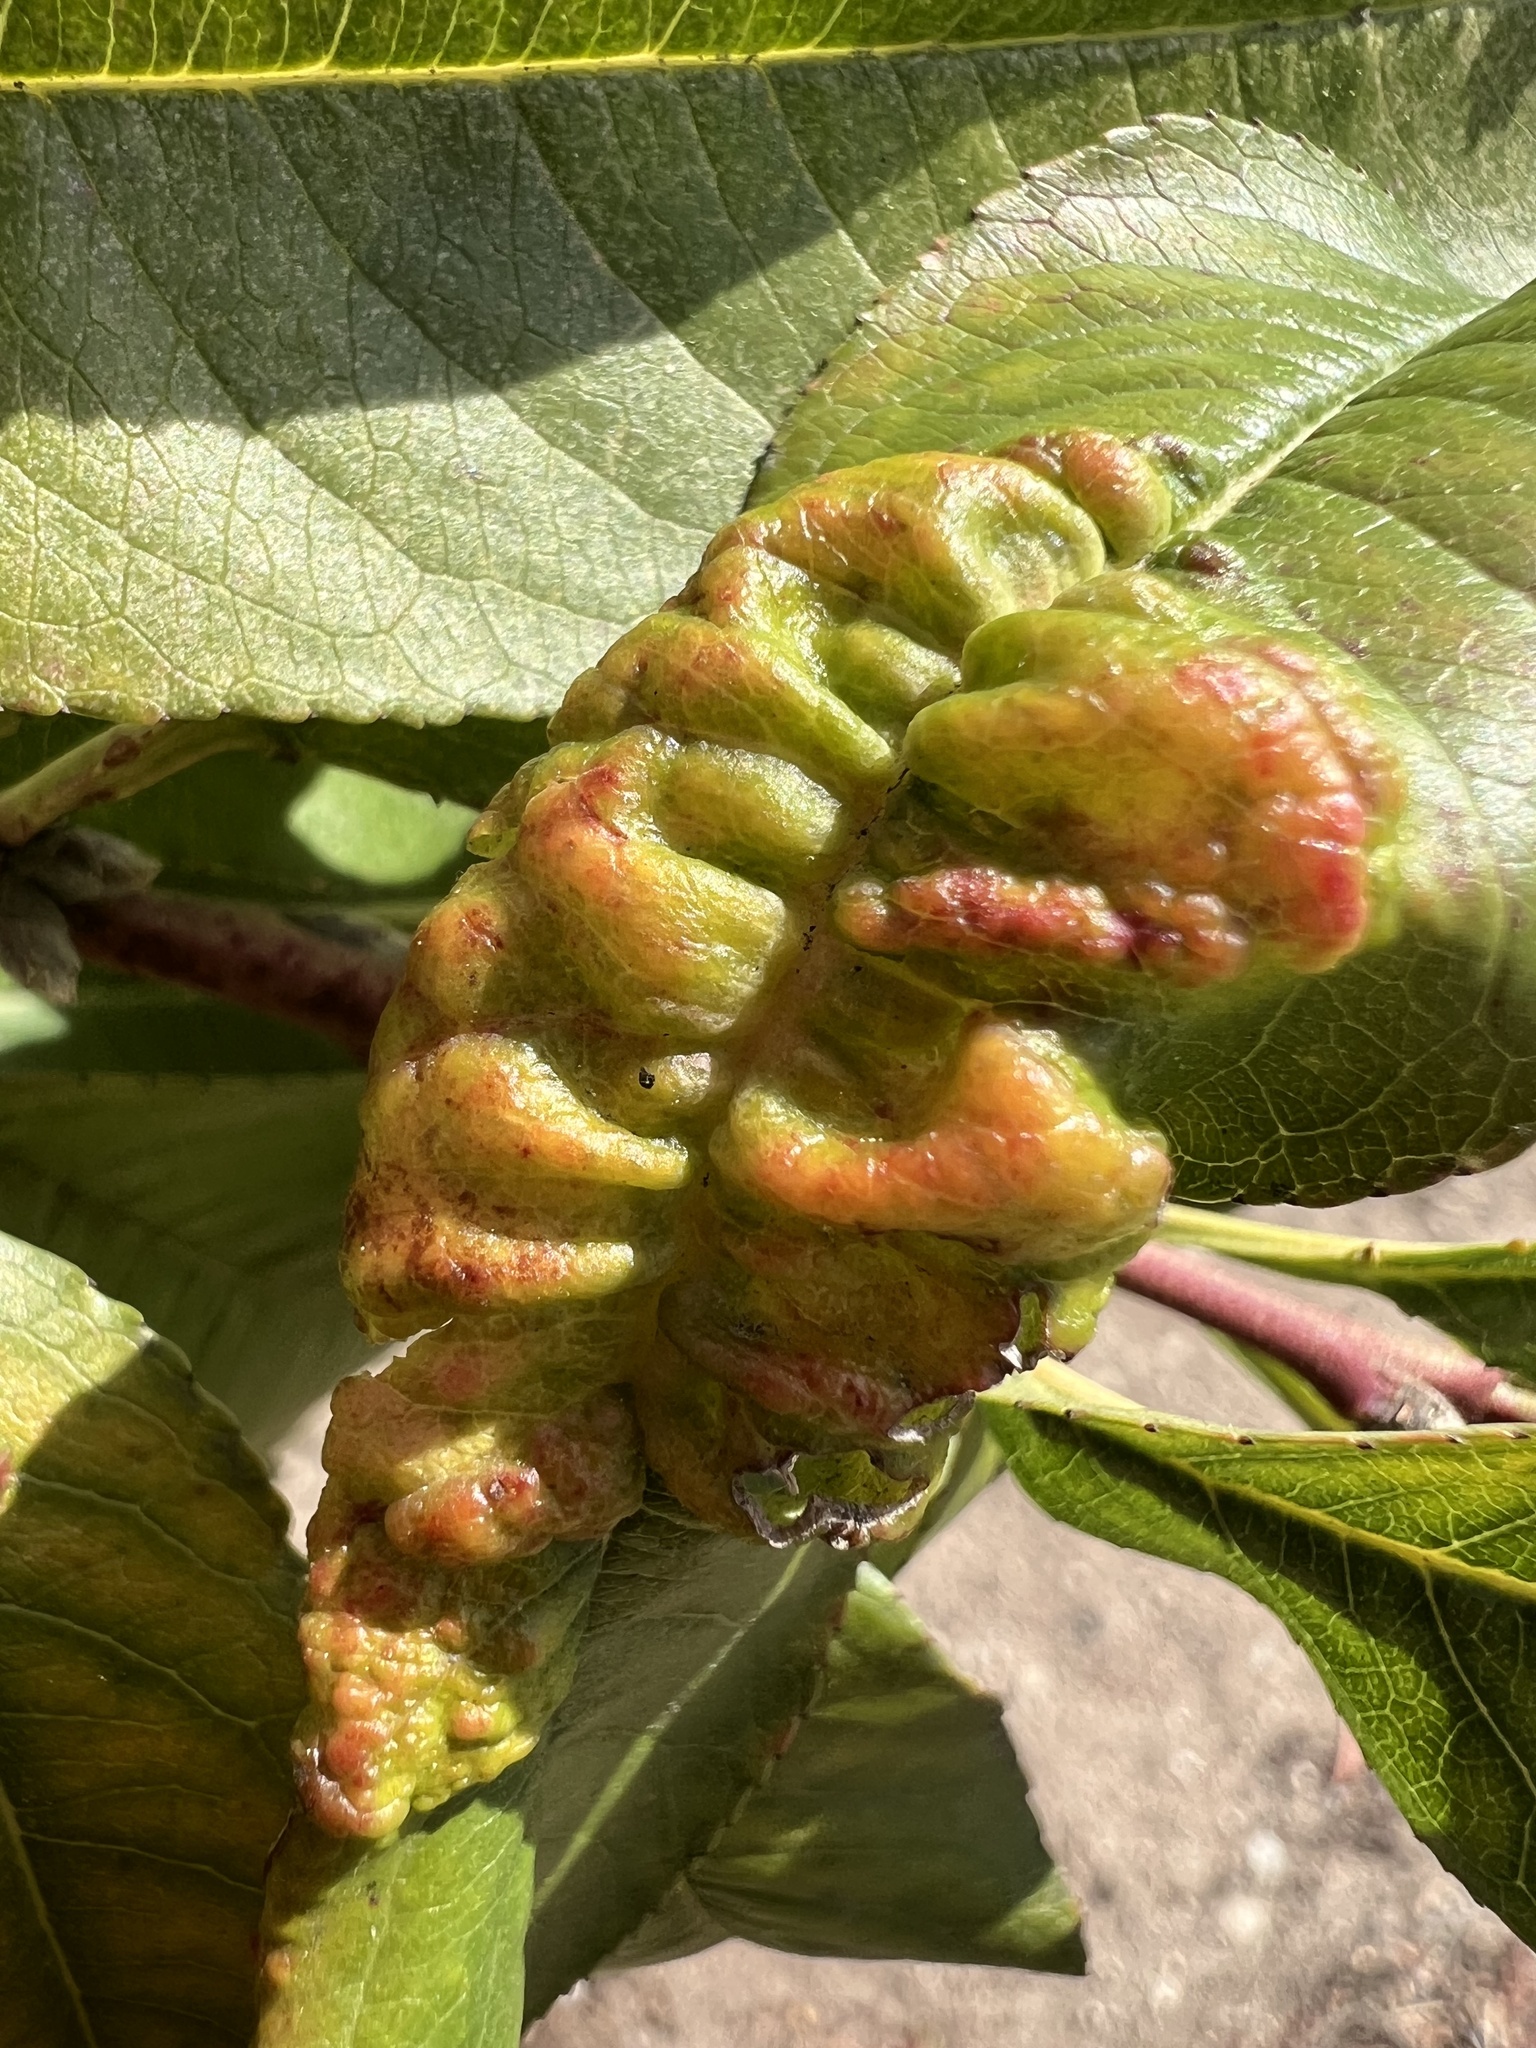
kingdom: Fungi
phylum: Ascomycota
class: Taphrinomycetes
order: Taphrinales
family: Taphrinaceae
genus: Taphrina
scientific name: Taphrina deformans
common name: Peach leaf curl
